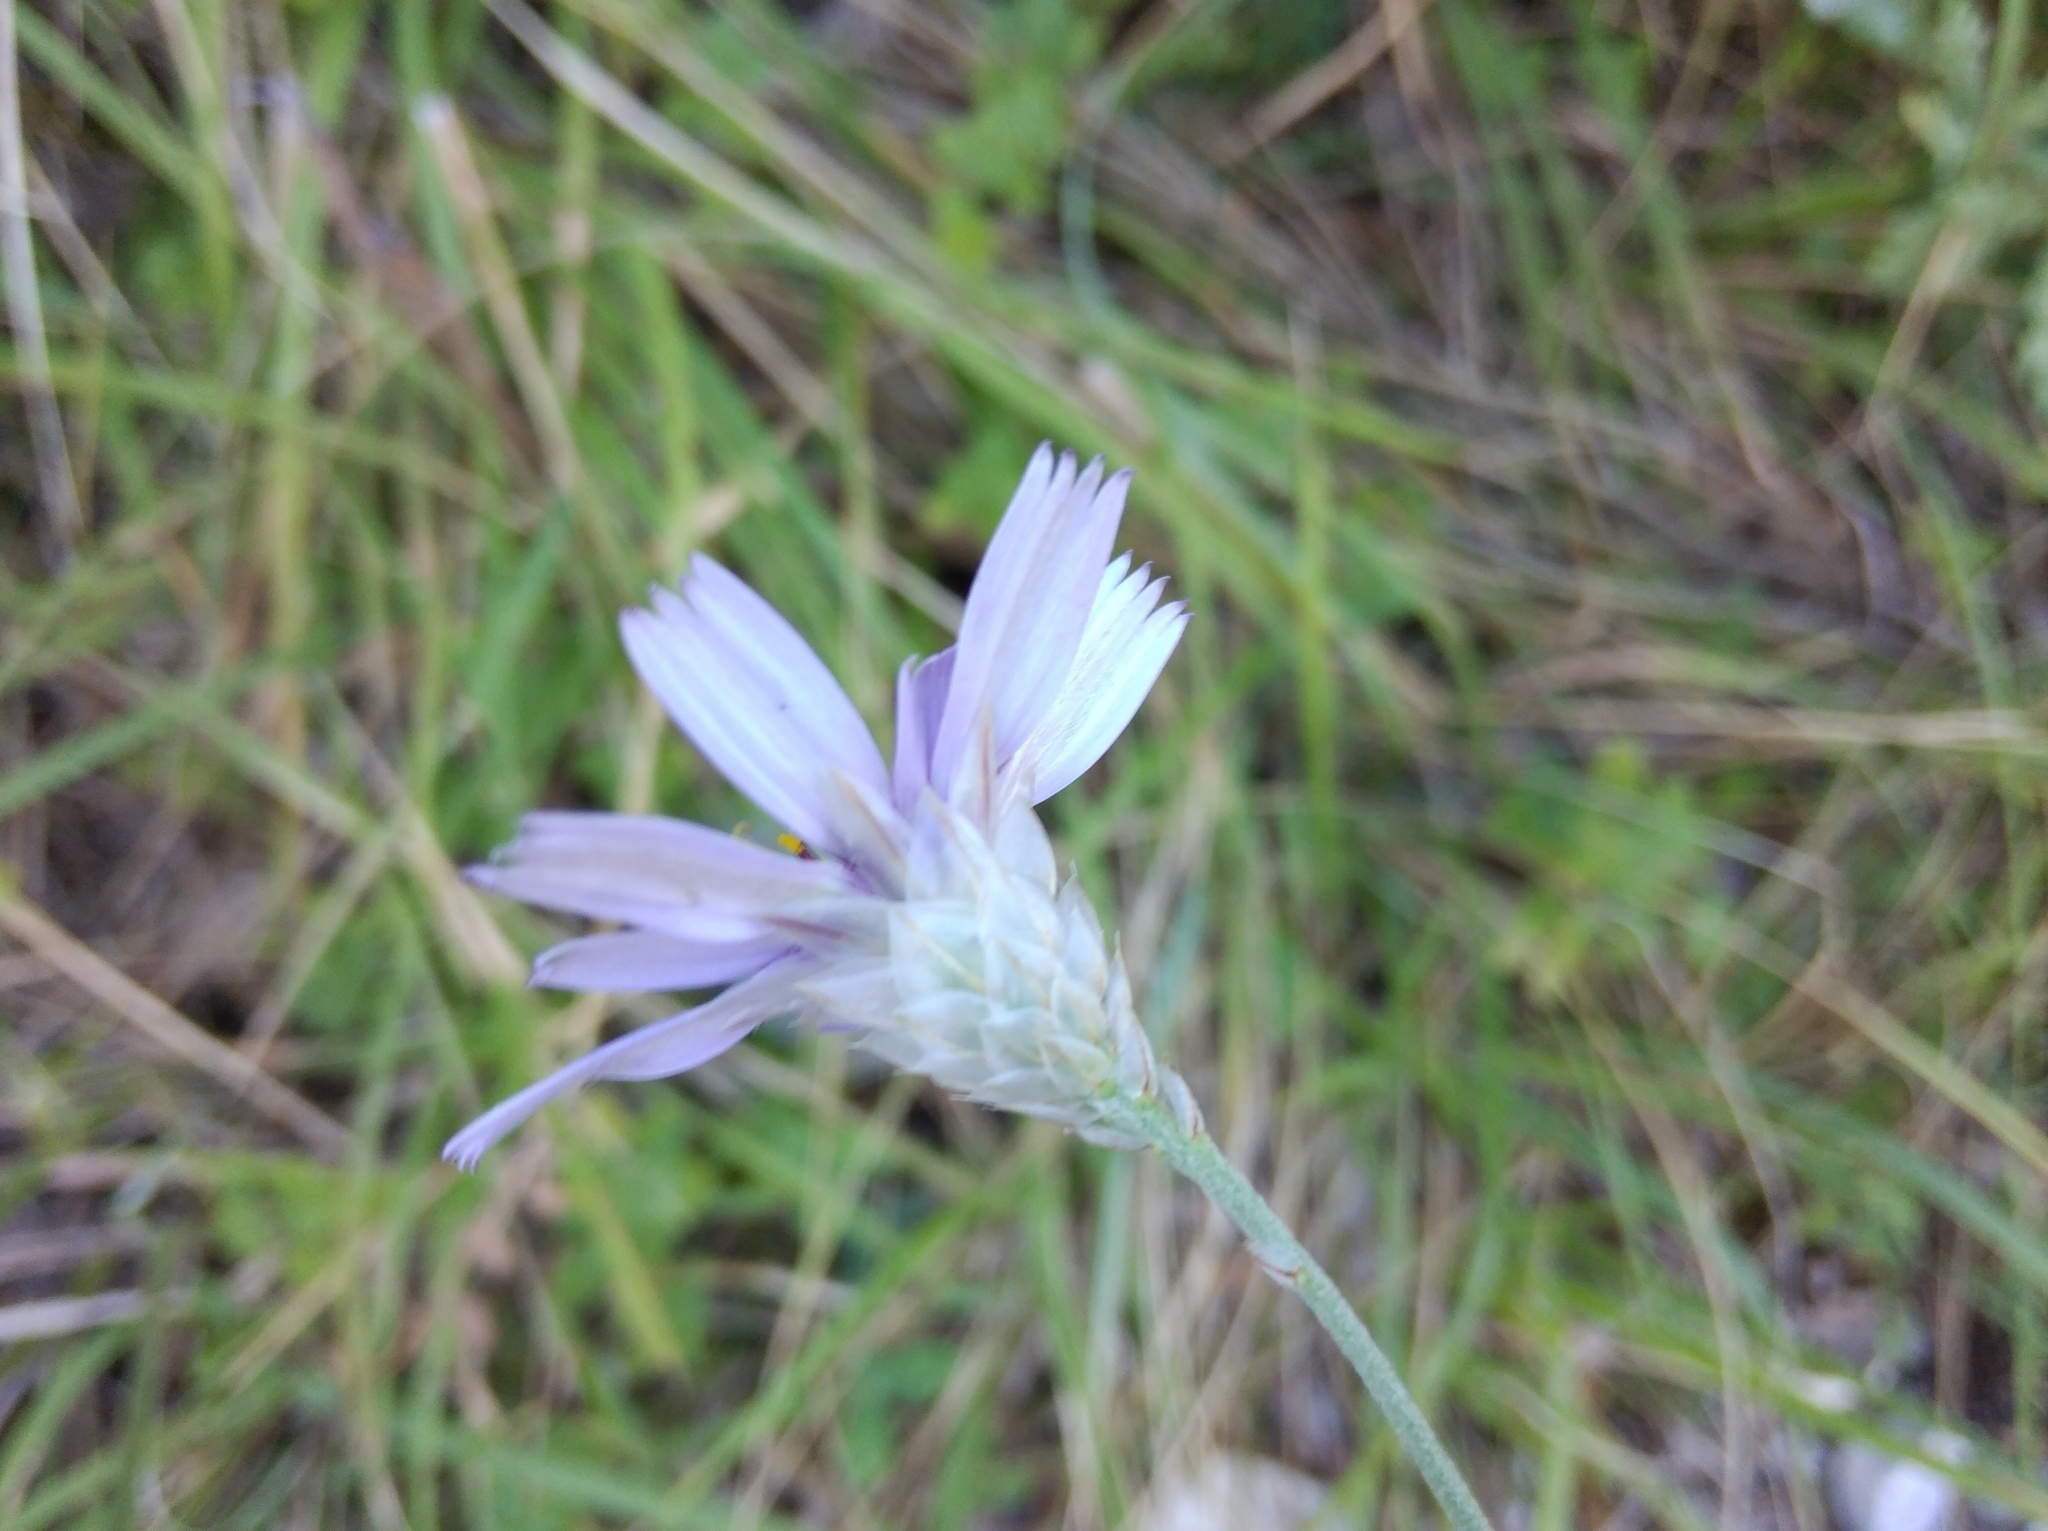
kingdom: Plantae
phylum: Tracheophyta
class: Magnoliopsida
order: Asterales
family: Asteraceae
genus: Catananche
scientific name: Catananche caerulea
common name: Blue cupidone
